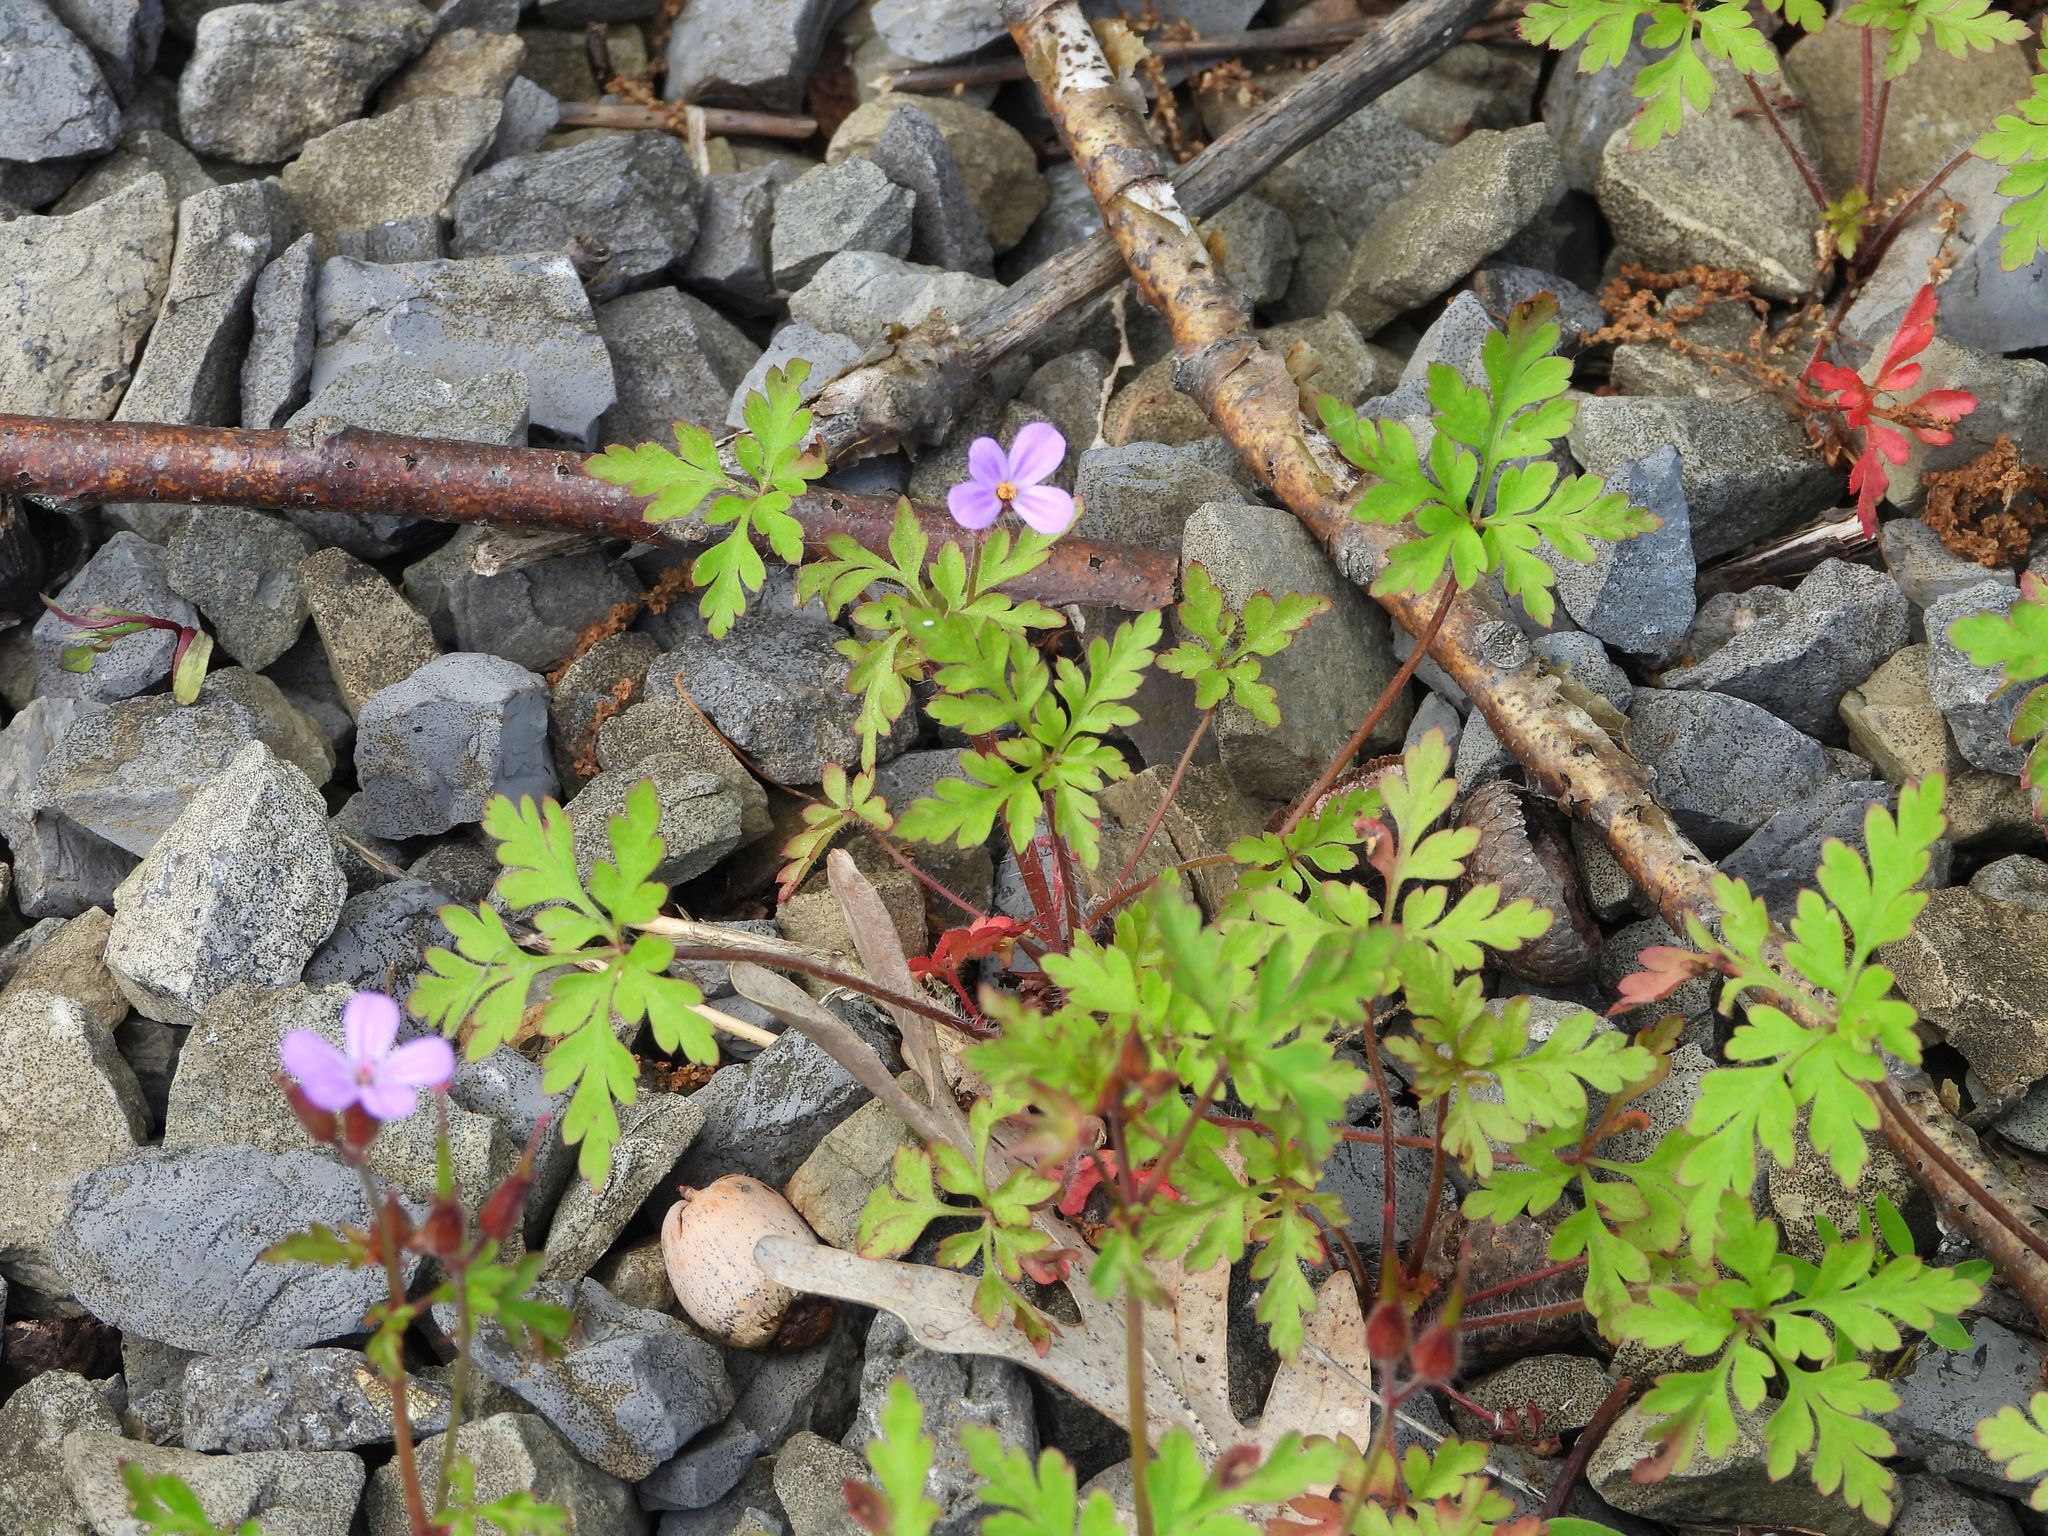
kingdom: Plantae
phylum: Tracheophyta
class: Magnoliopsida
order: Geraniales
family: Geraniaceae
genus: Geranium
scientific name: Geranium robertianum
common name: Herb-robert
